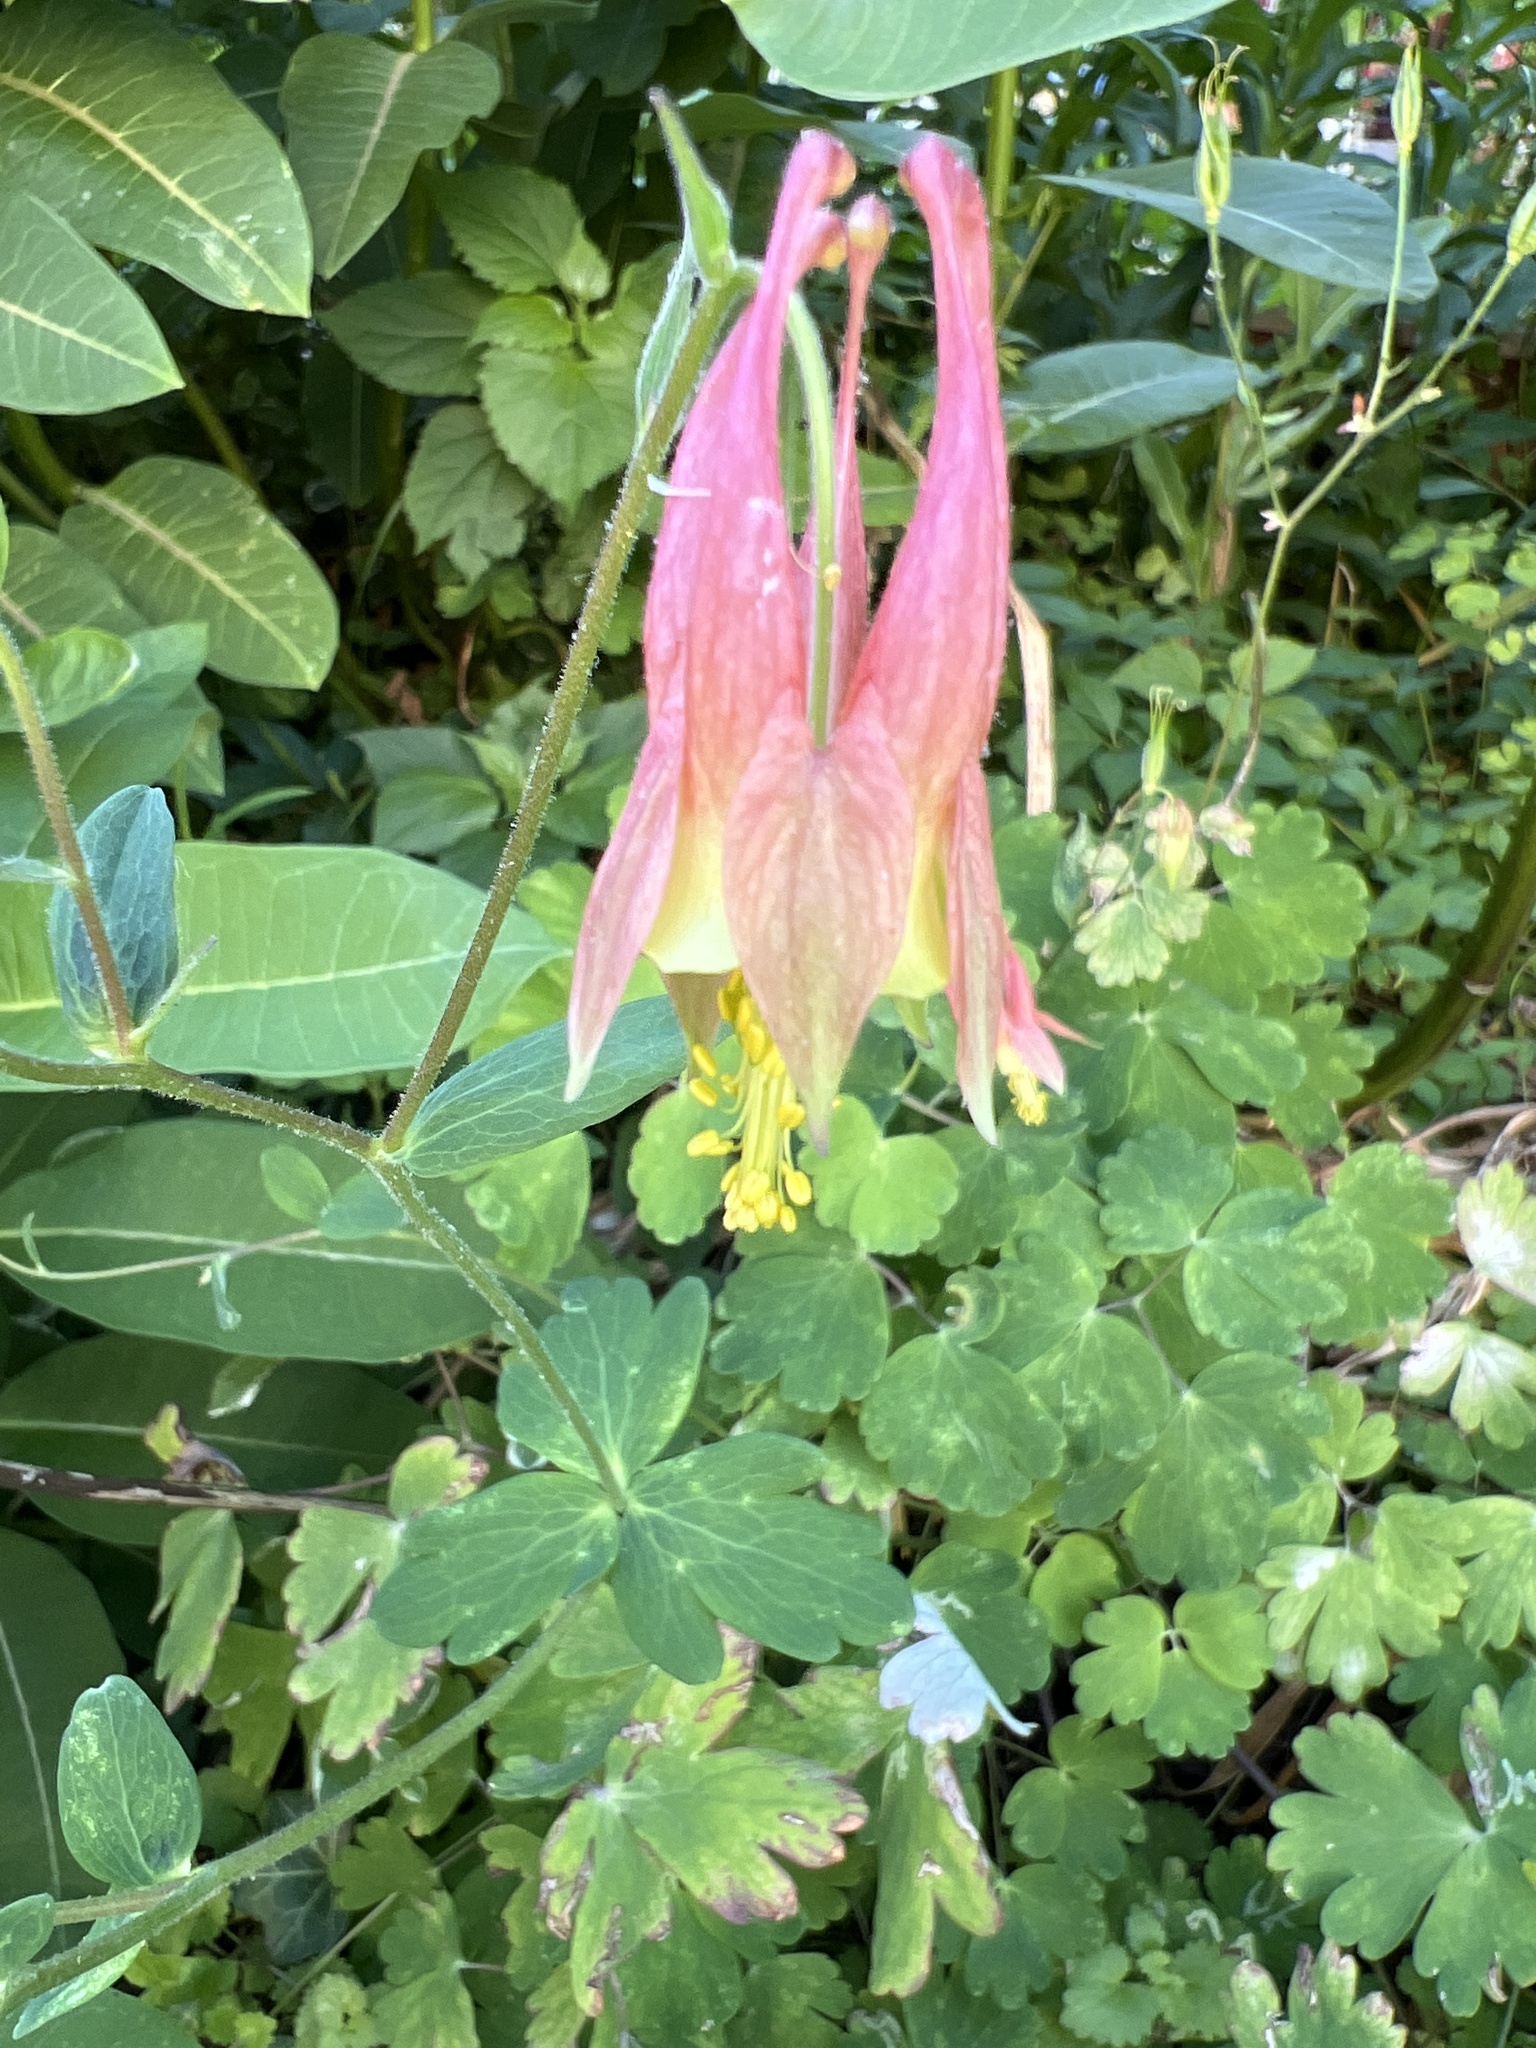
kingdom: Plantae
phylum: Tracheophyta
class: Magnoliopsida
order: Ranunculales
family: Ranunculaceae
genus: Aquilegia
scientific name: Aquilegia canadensis
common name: American columbine
